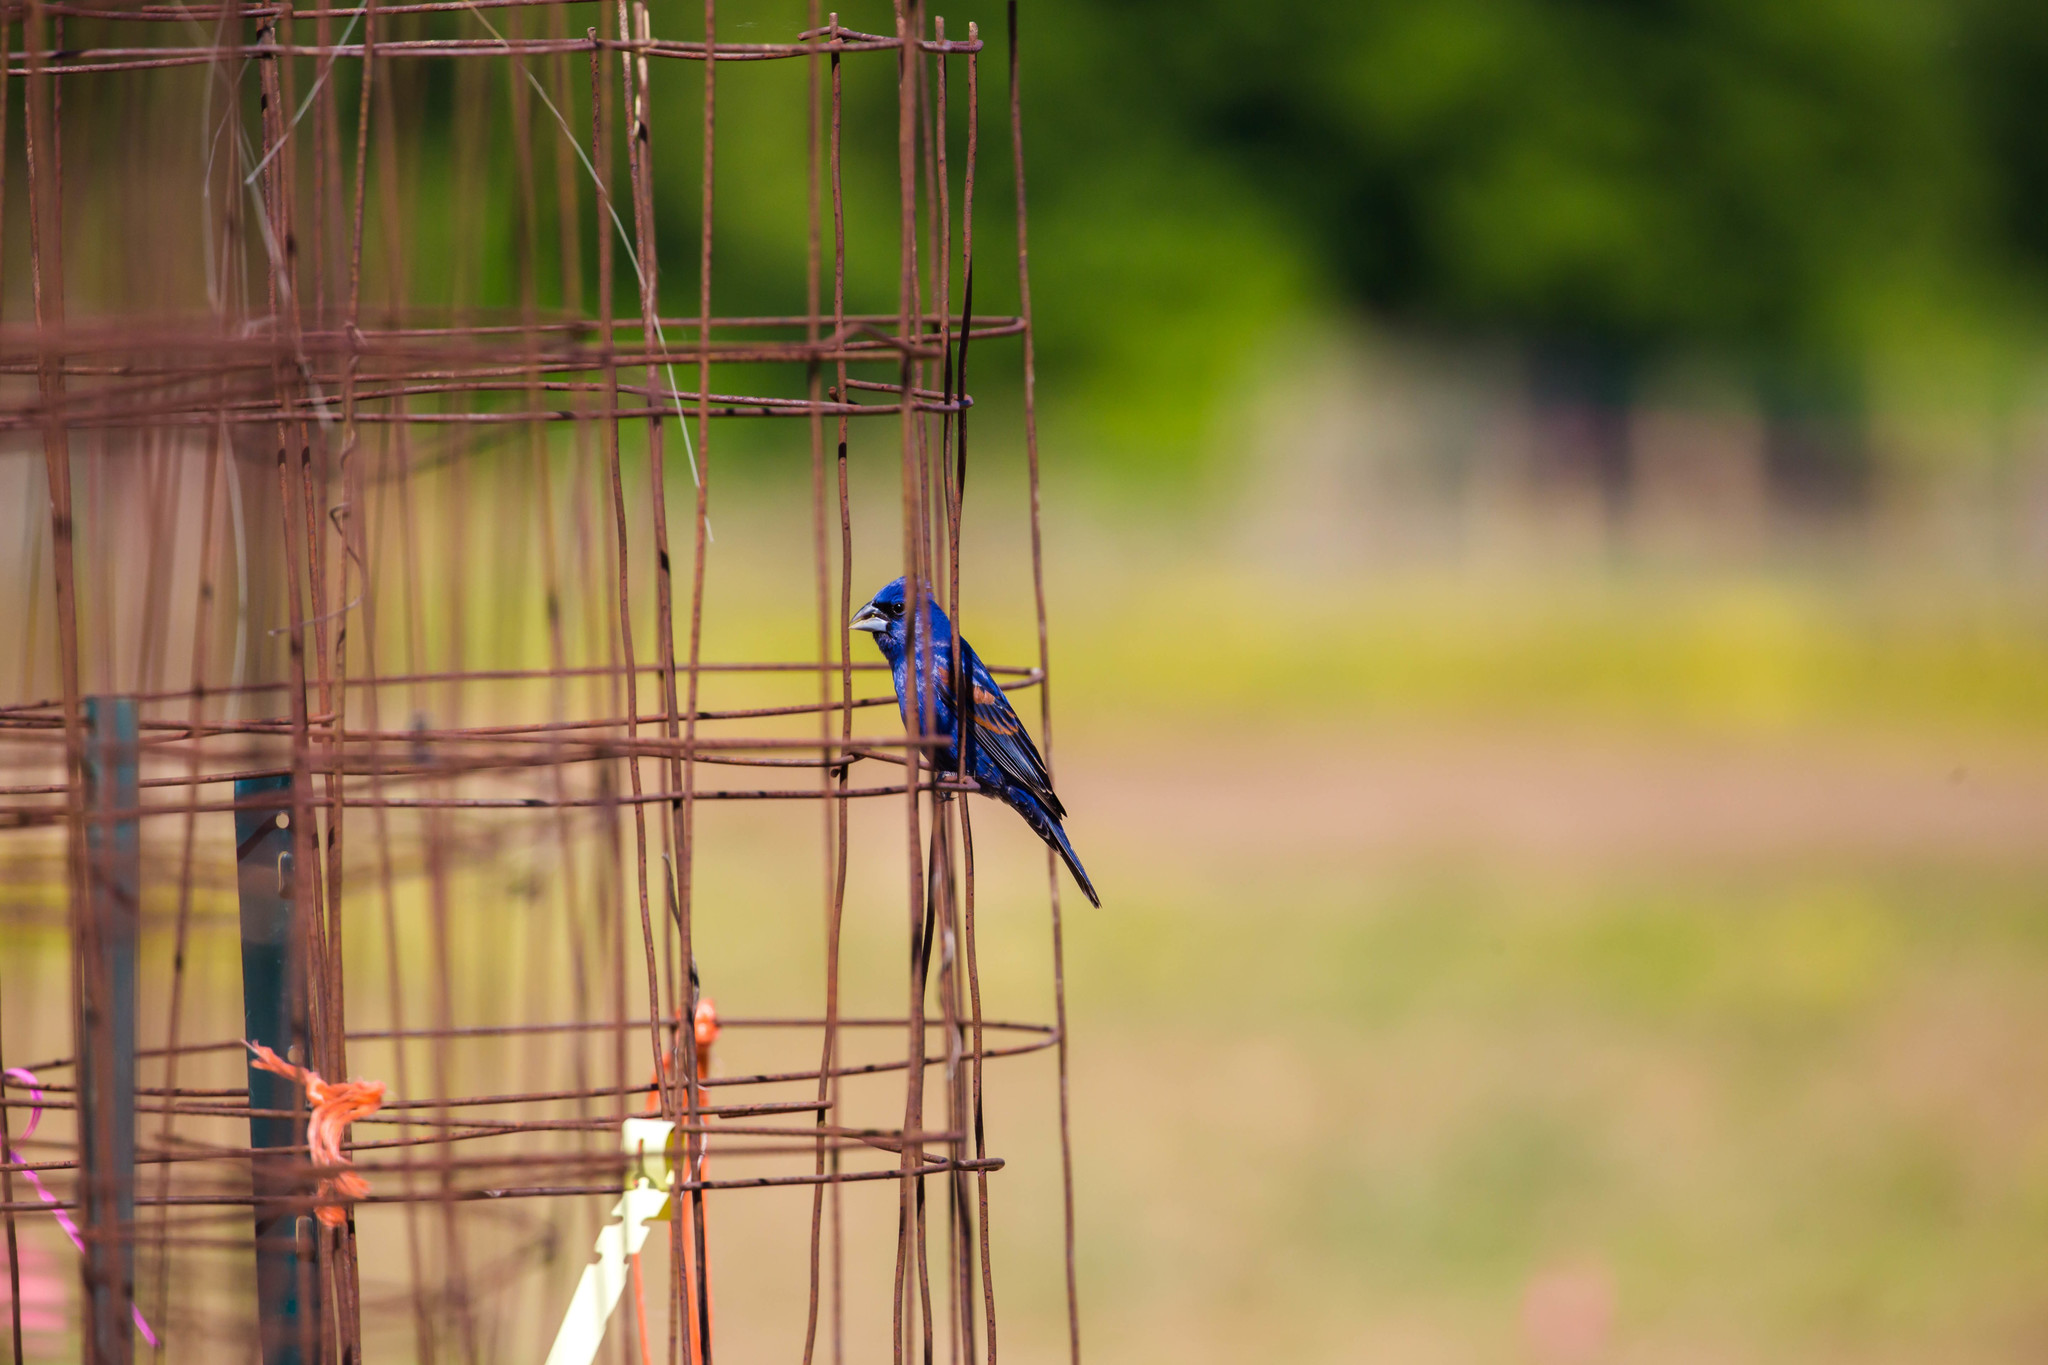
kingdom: Animalia
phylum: Chordata
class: Aves
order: Passeriformes
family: Cardinalidae
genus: Passerina
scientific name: Passerina caerulea
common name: Blue grosbeak
